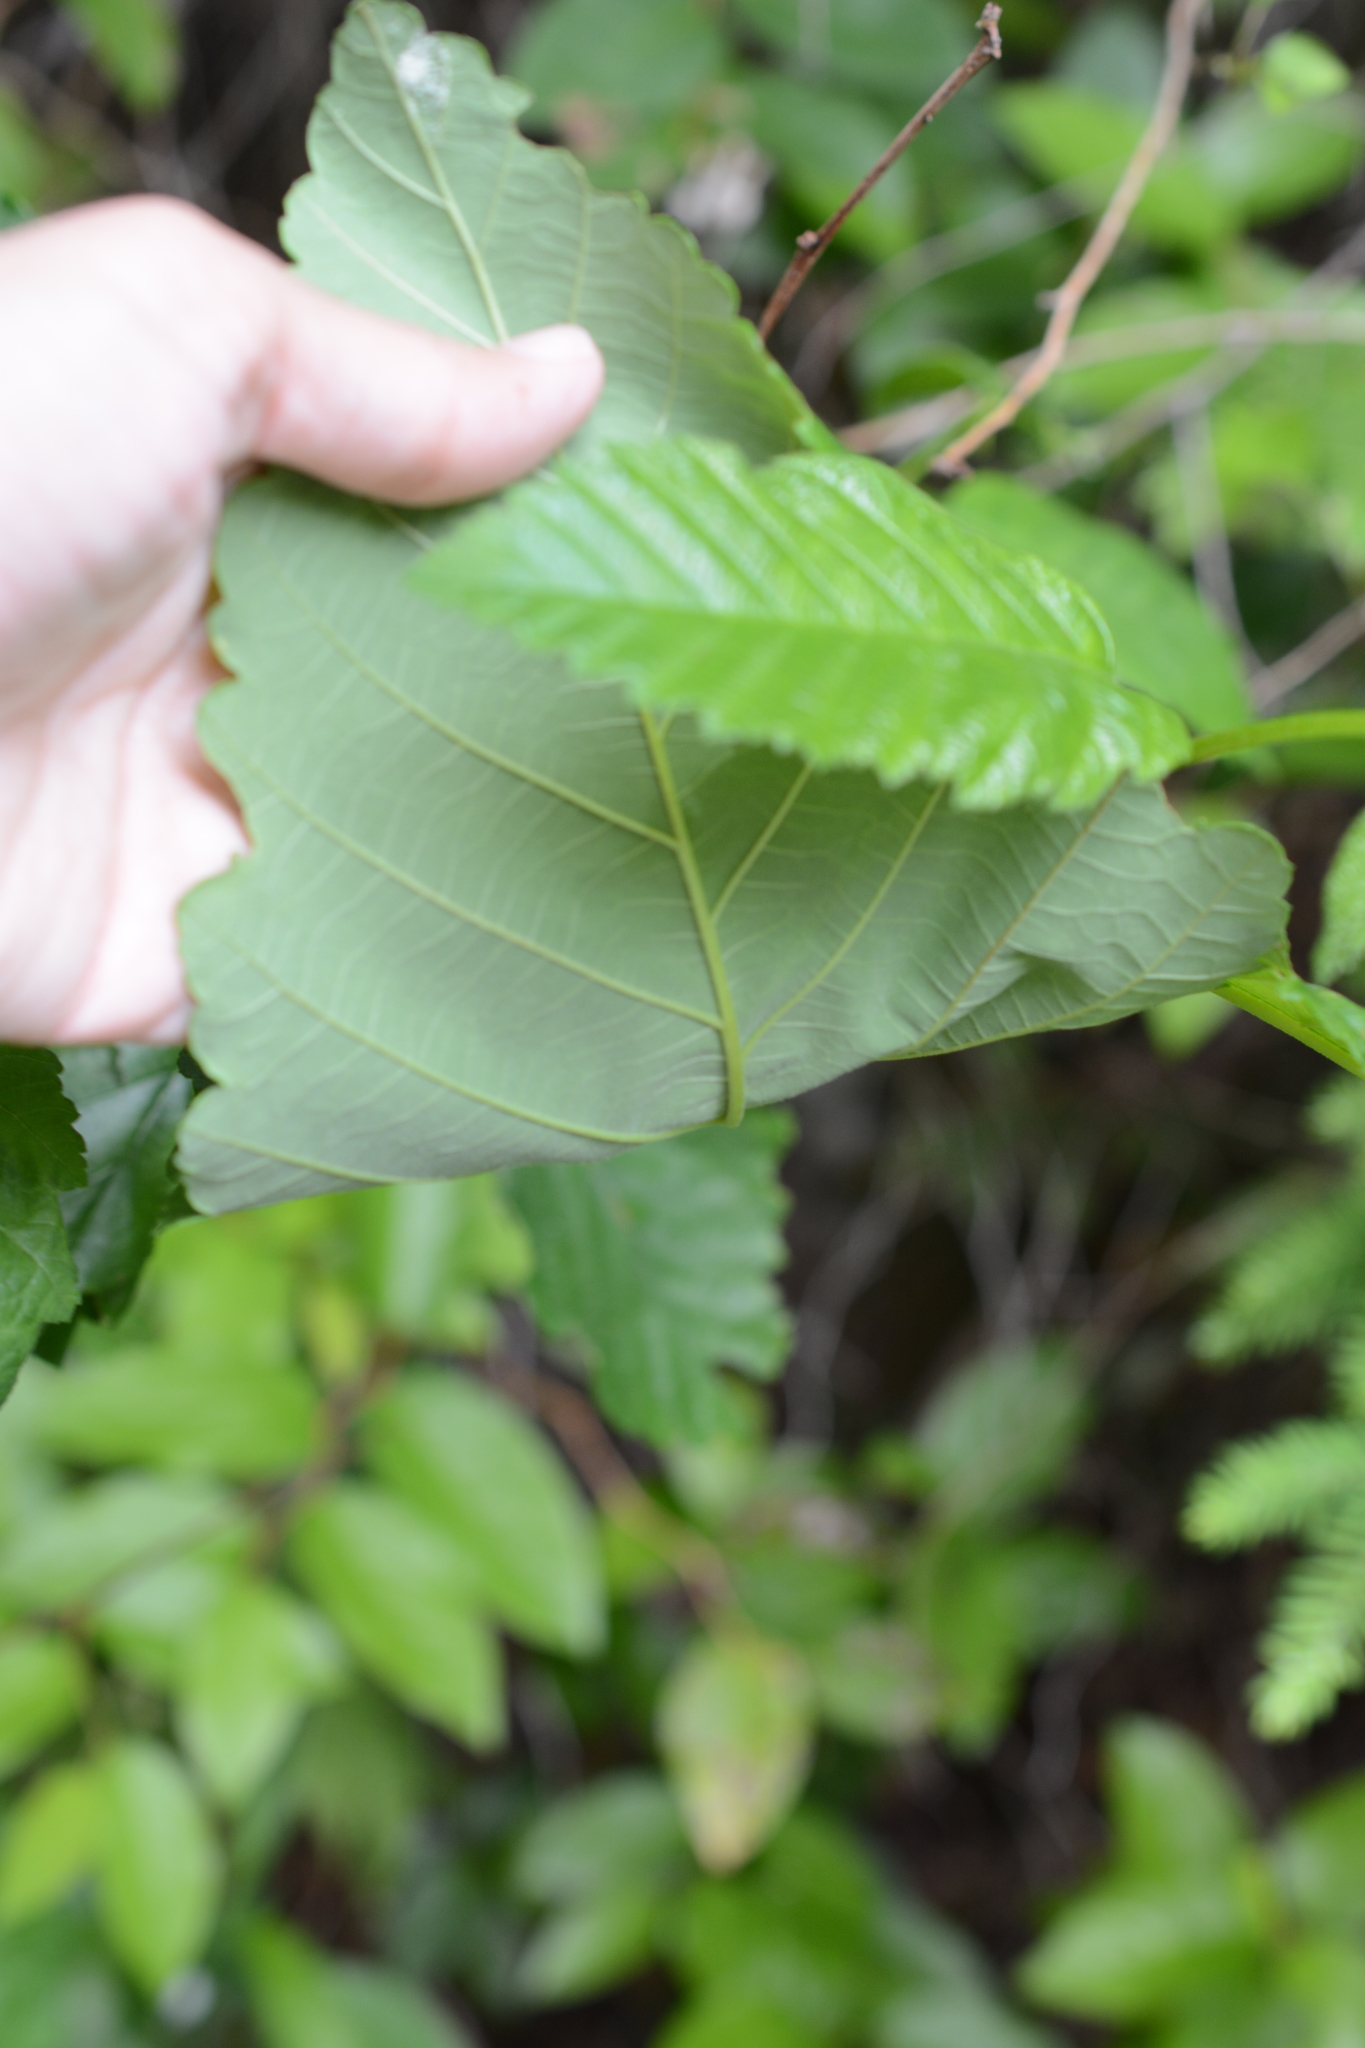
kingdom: Plantae
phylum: Tracheophyta
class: Magnoliopsida
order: Fagales
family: Betulaceae
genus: Alnus
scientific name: Alnus rubra
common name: Red alder
